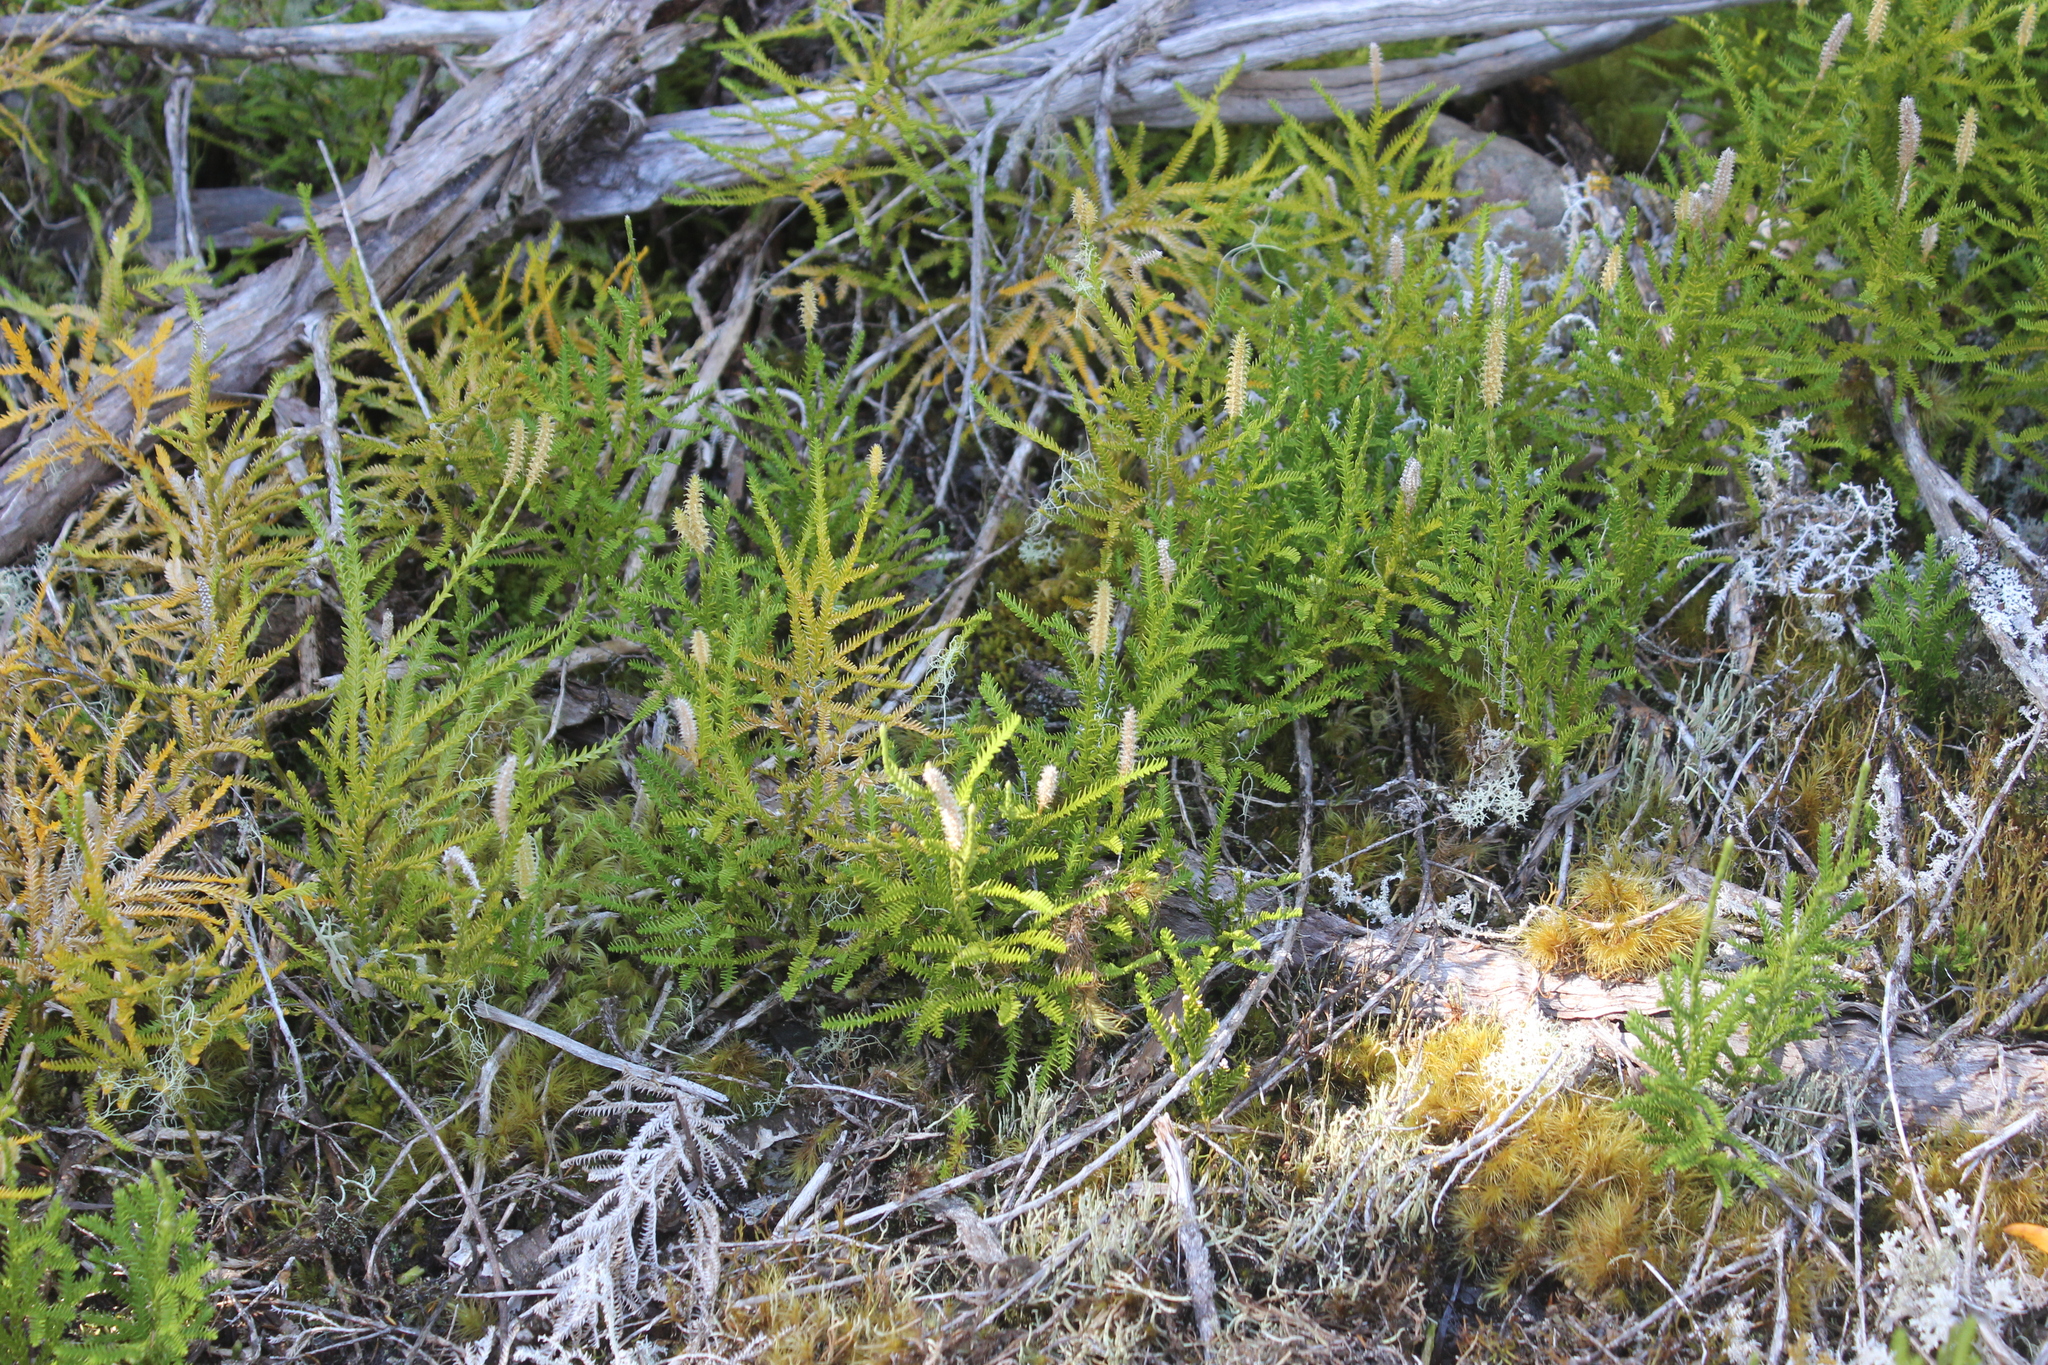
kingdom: Plantae
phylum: Tracheophyta
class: Lycopodiopsida
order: Lycopodiales
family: Lycopodiaceae
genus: Diphasium
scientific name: Diphasium scariosum
